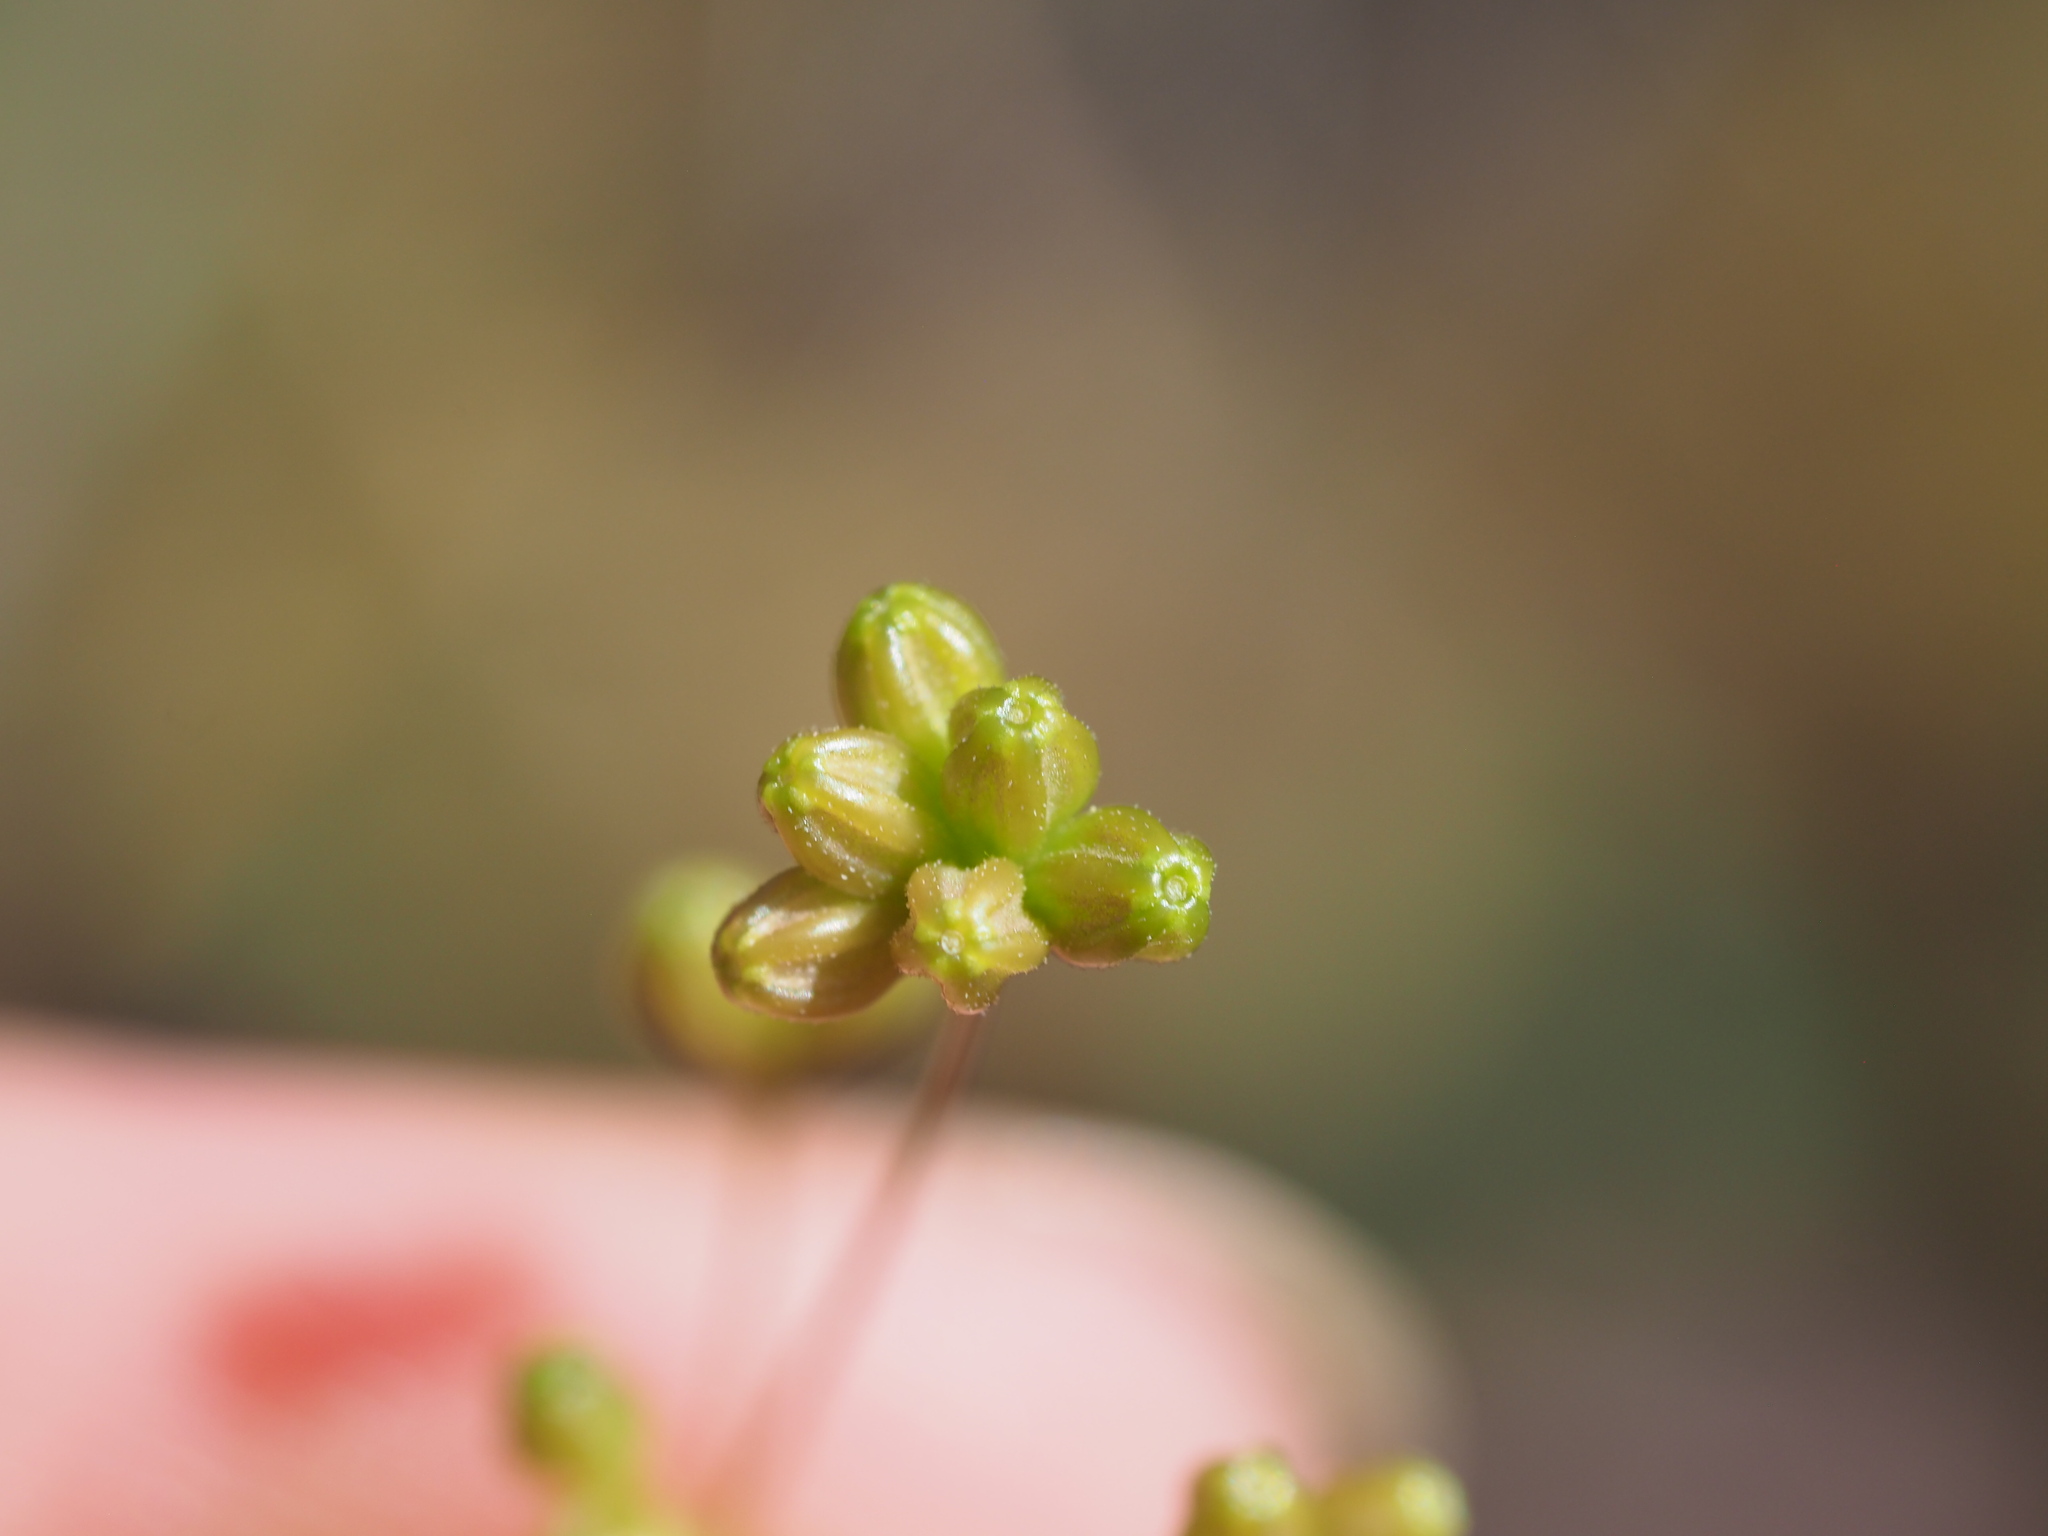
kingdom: Plantae
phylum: Tracheophyta
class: Magnoliopsida
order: Caryophyllales
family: Nyctaginaceae
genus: Boerhavia
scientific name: Boerhavia glabrata
